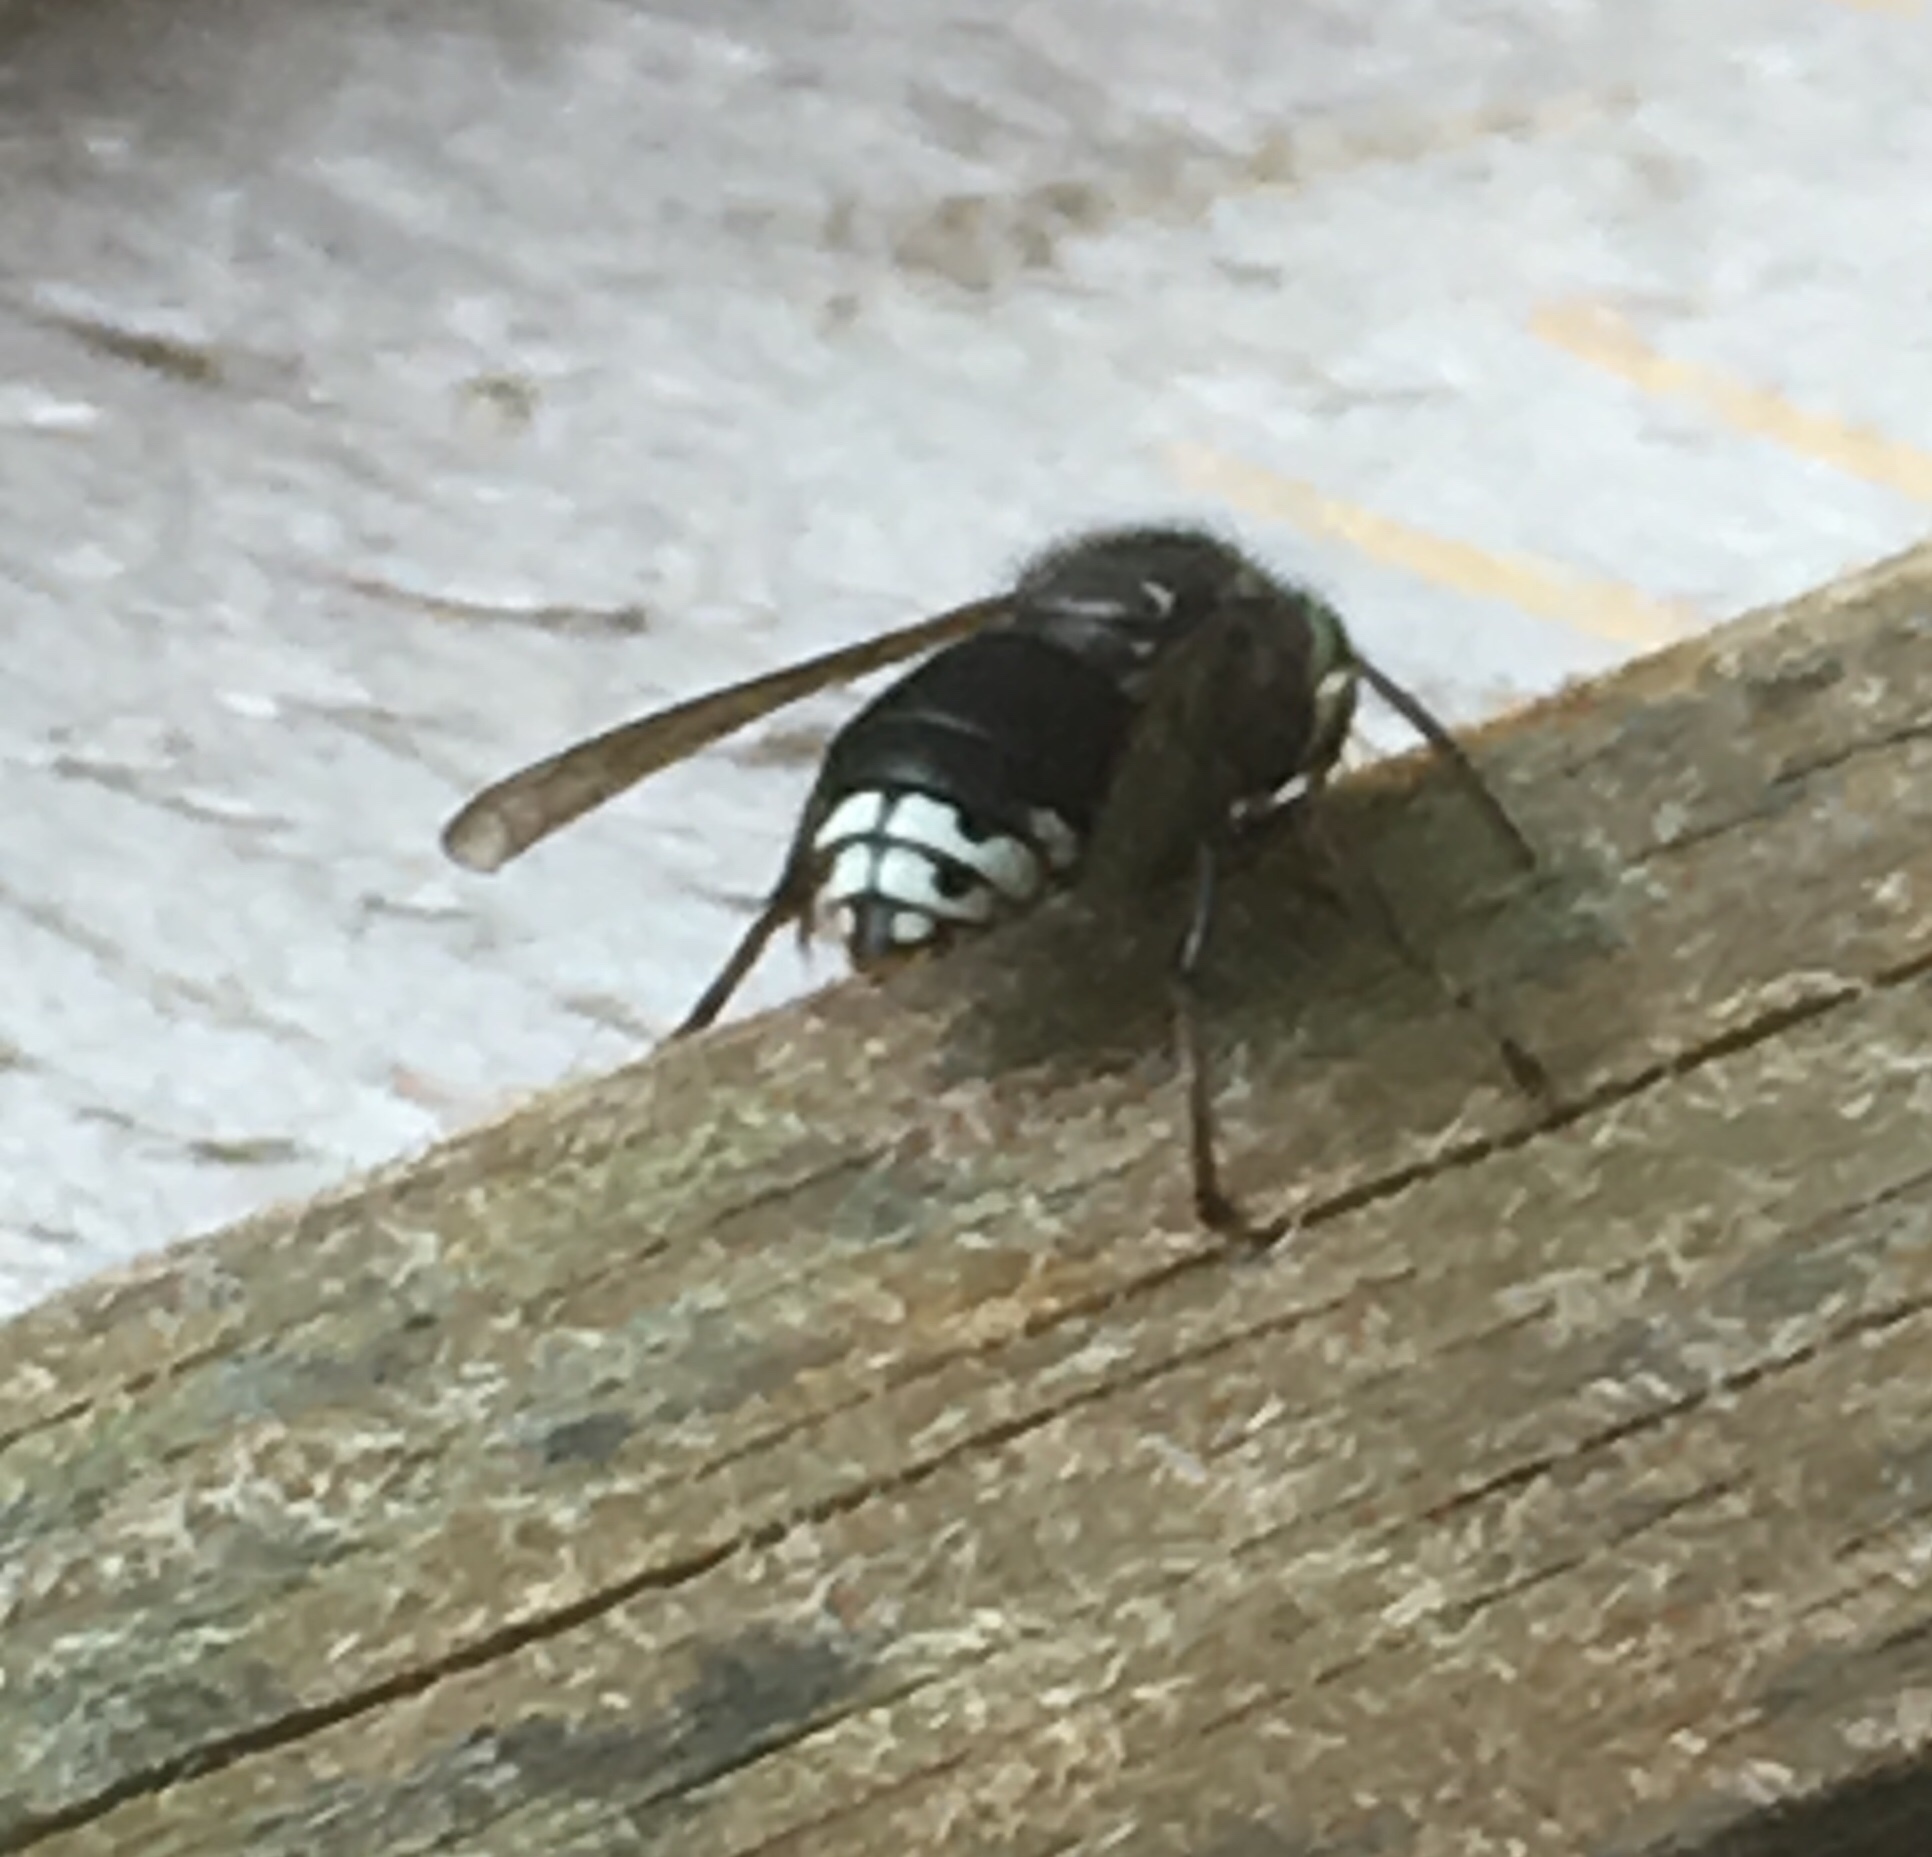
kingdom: Animalia
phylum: Arthropoda
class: Insecta
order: Hymenoptera
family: Vespidae
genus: Dolichovespula
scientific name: Dolichovespula maculata
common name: Bald-faced hornet
